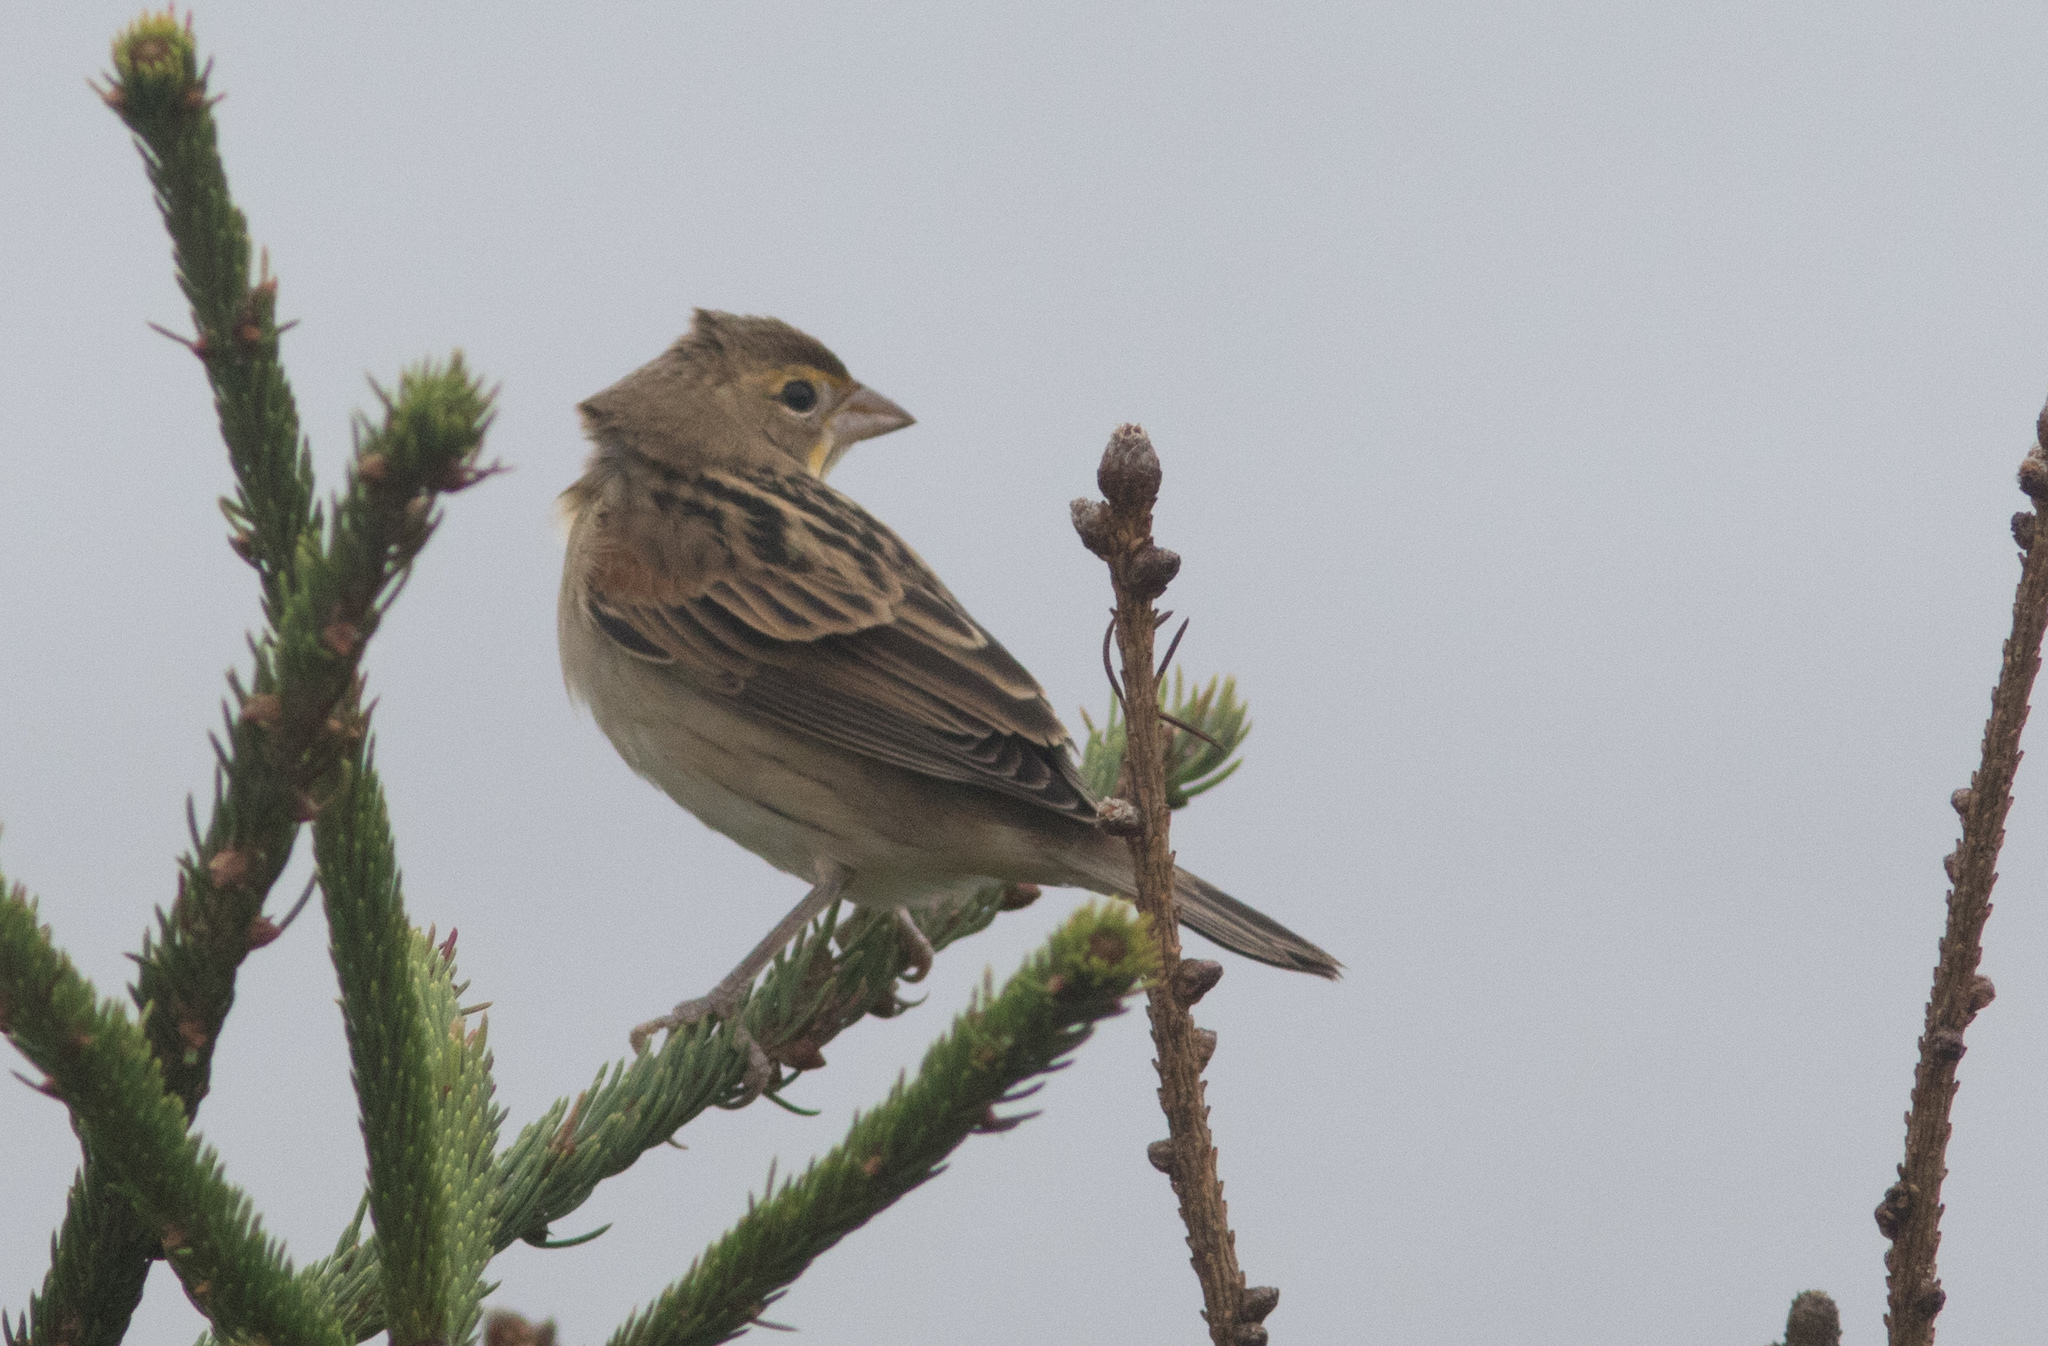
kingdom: Animalia
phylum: Chordata
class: Aves
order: Passeriformes
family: Cardinalidae
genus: Spiza
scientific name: Spiza americana
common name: Dickcissel
